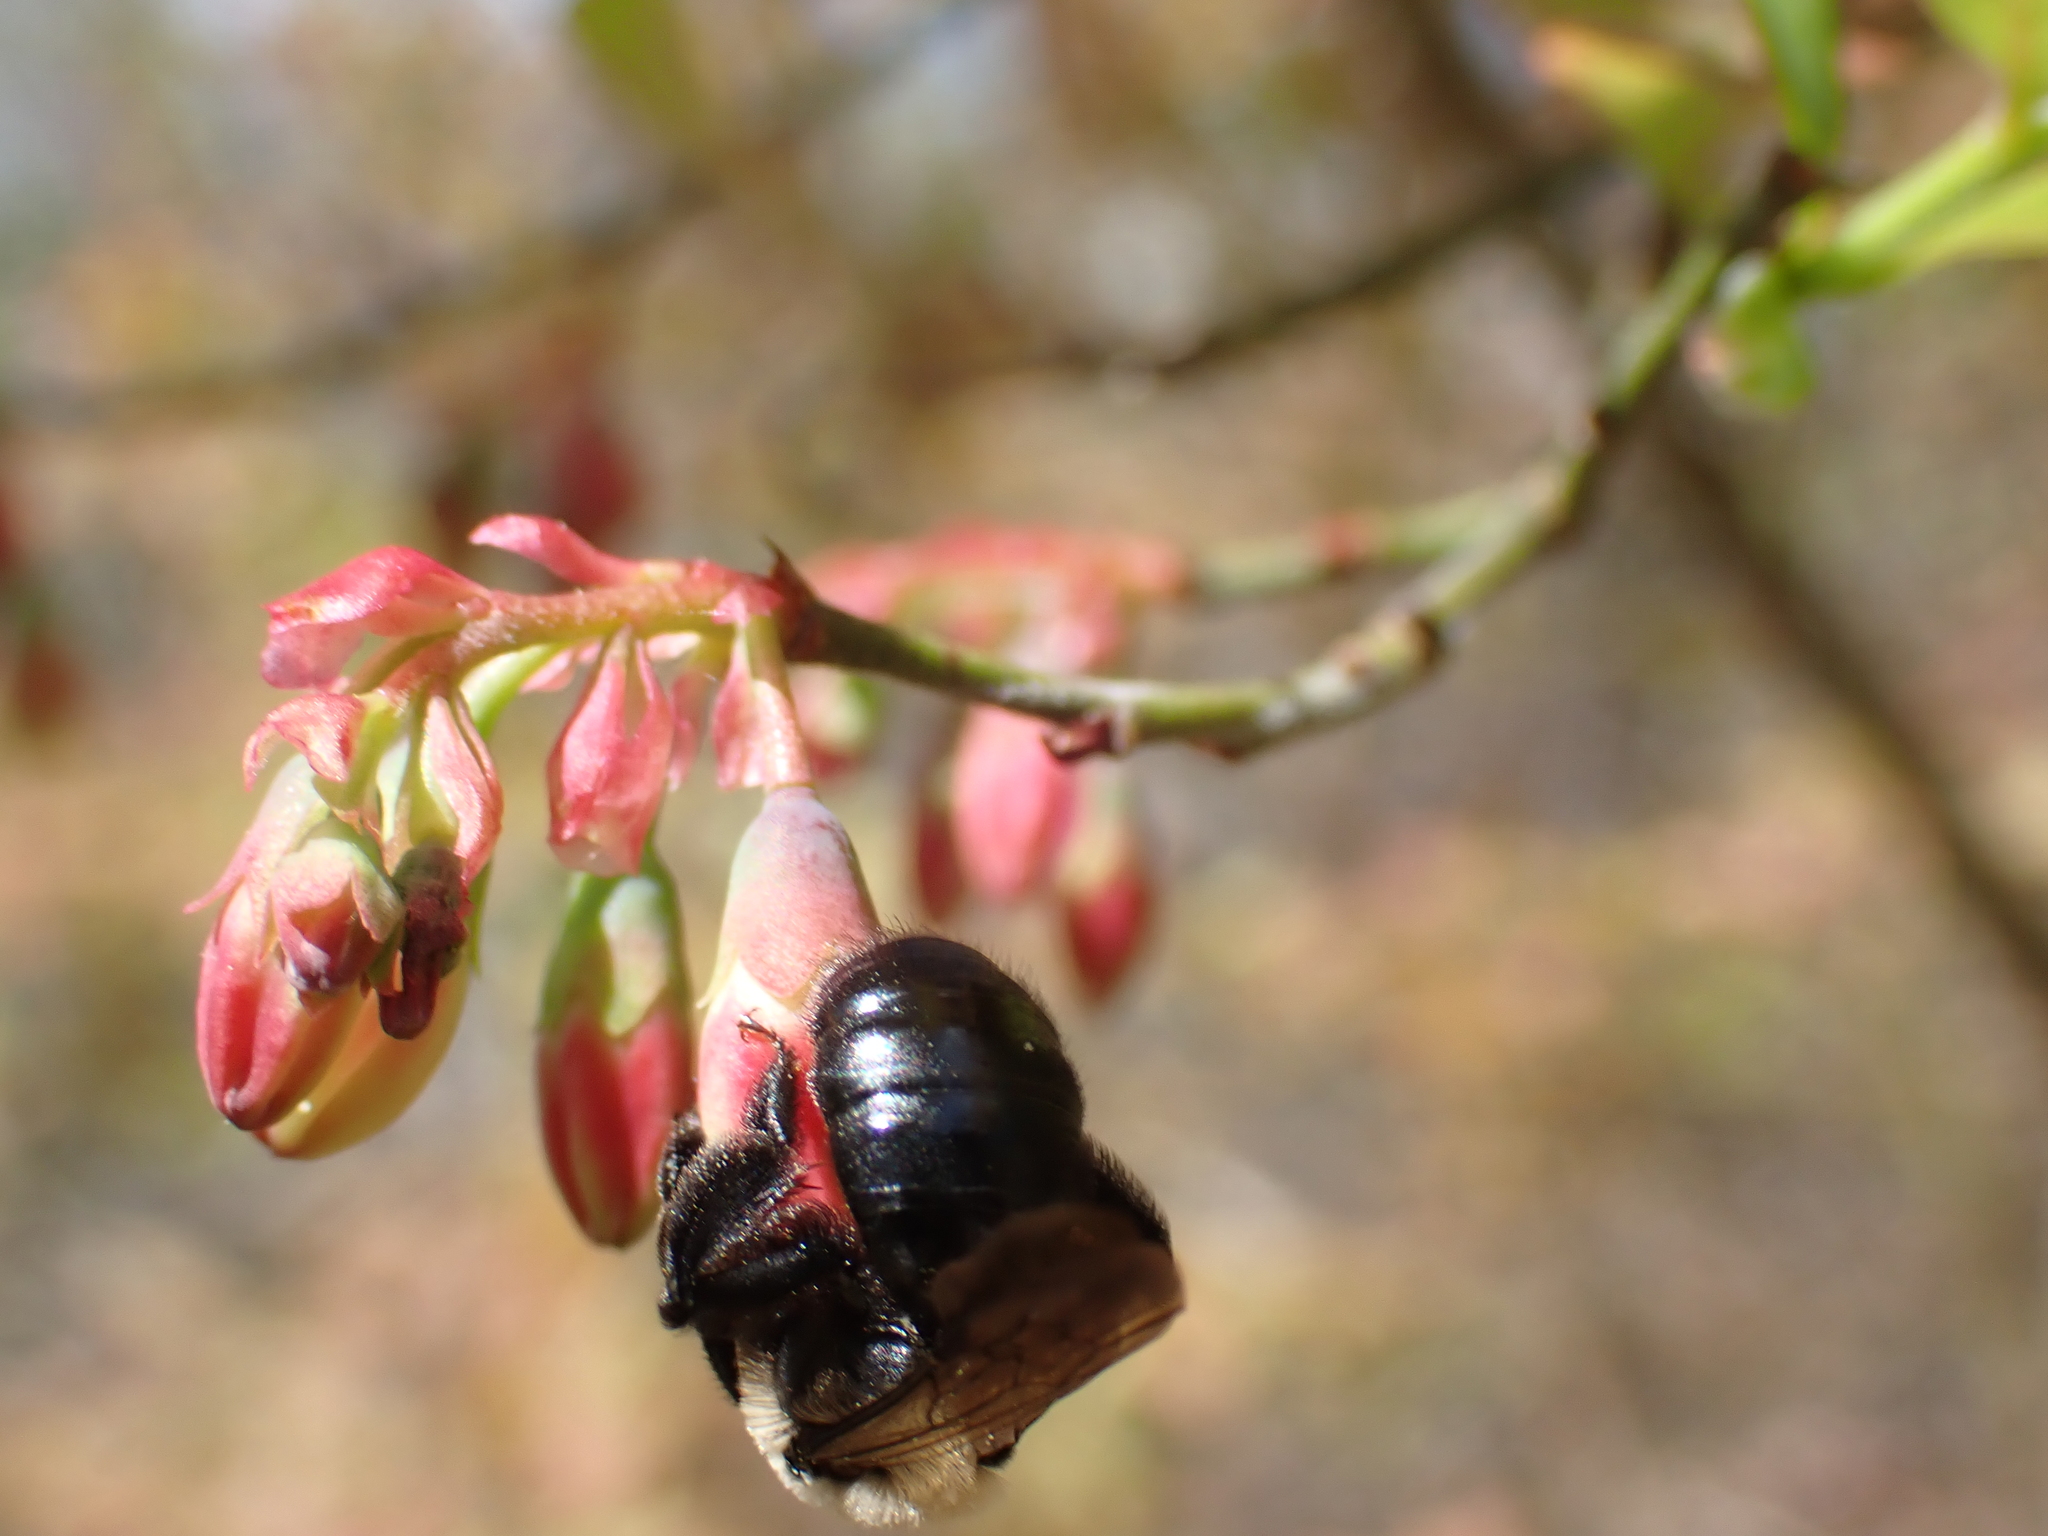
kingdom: Animalia
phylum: Arthropoda
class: Insecta
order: Hymenoptera
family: Andrenidae
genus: Andrena
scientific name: Andrena carlini
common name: Carlin's mining bee
